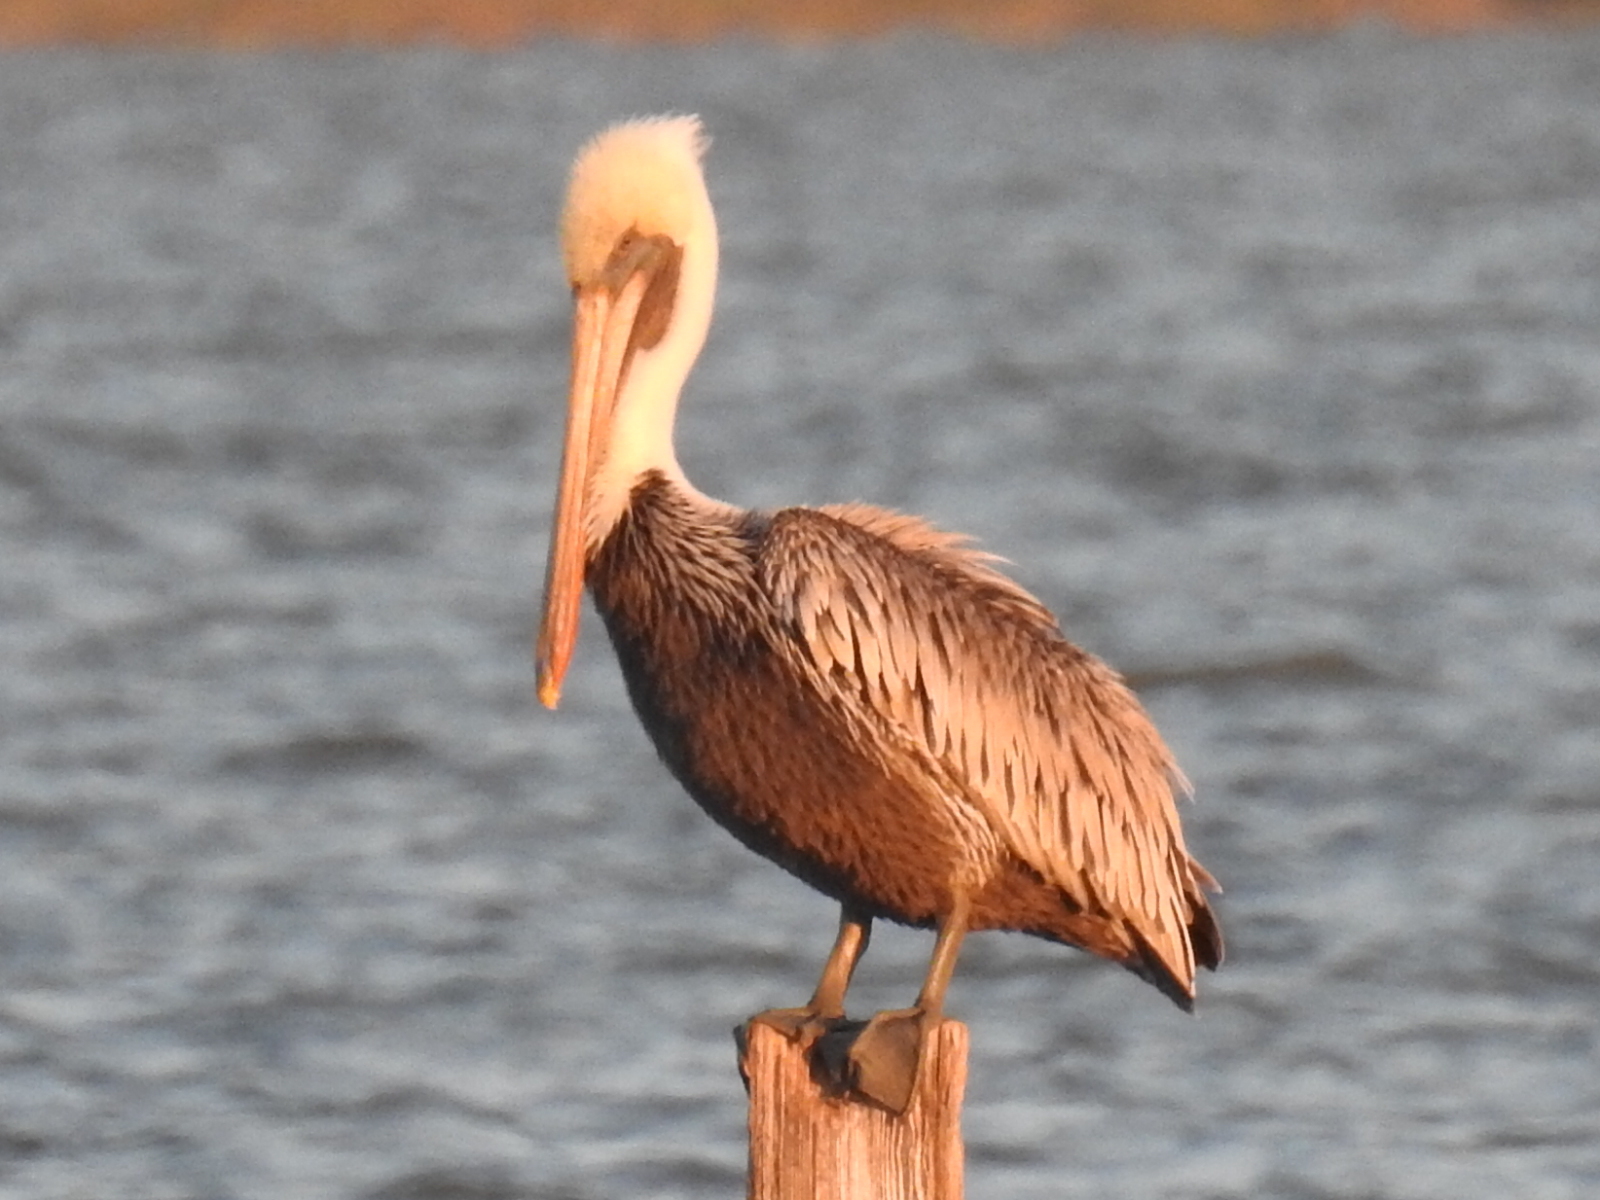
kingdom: Animalia
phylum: Chordata
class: Aves
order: Pelecaniformes
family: Pelecanidae
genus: Pelecanus
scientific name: Pelecanus occidentalis
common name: Brown pelican
